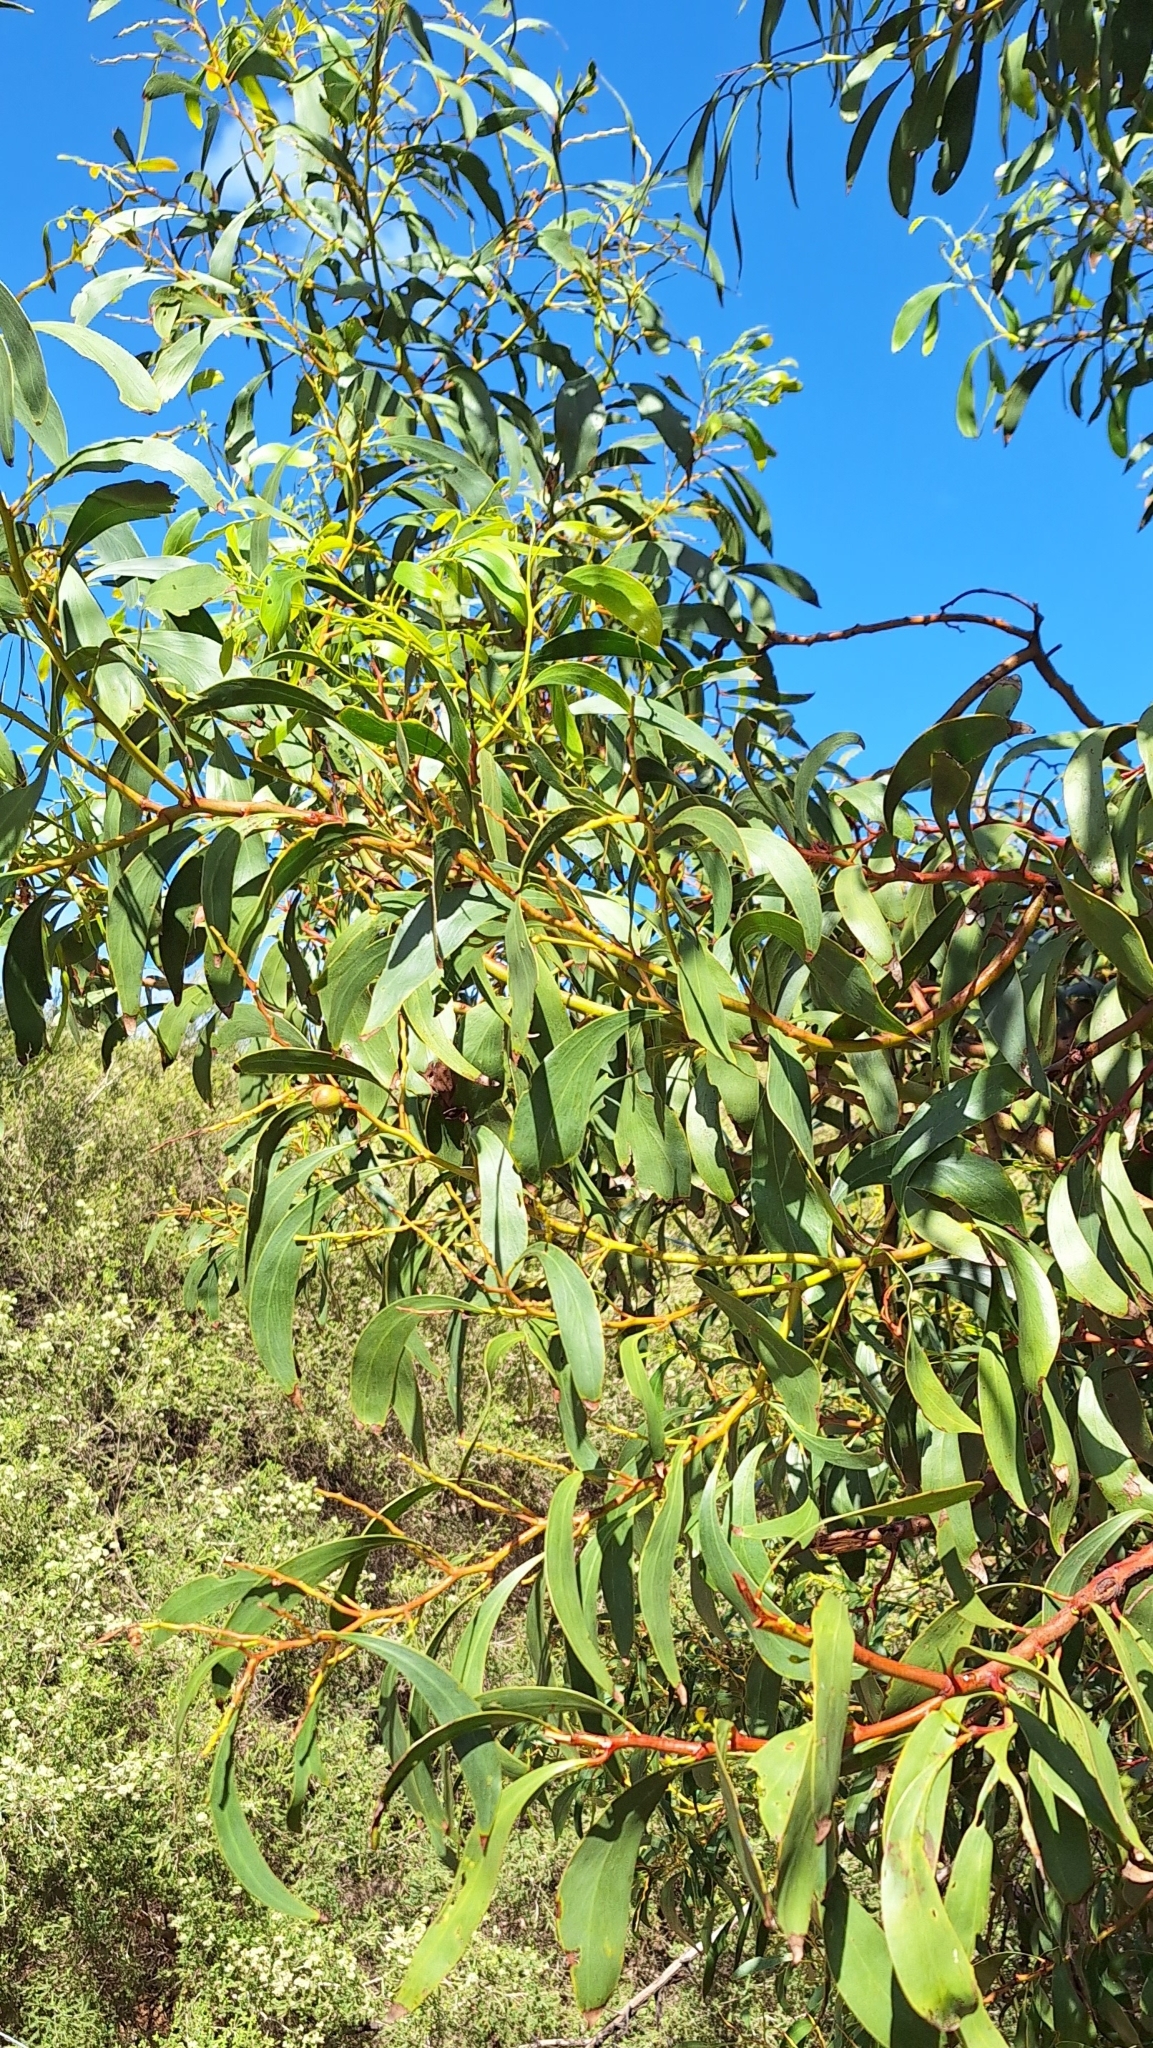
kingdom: Plantae
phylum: Tracheophyta
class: Magnoliopsida
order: Fabales
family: Fabaceae
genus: Acacia
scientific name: Acacia pycnantha
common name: Golden wattle
